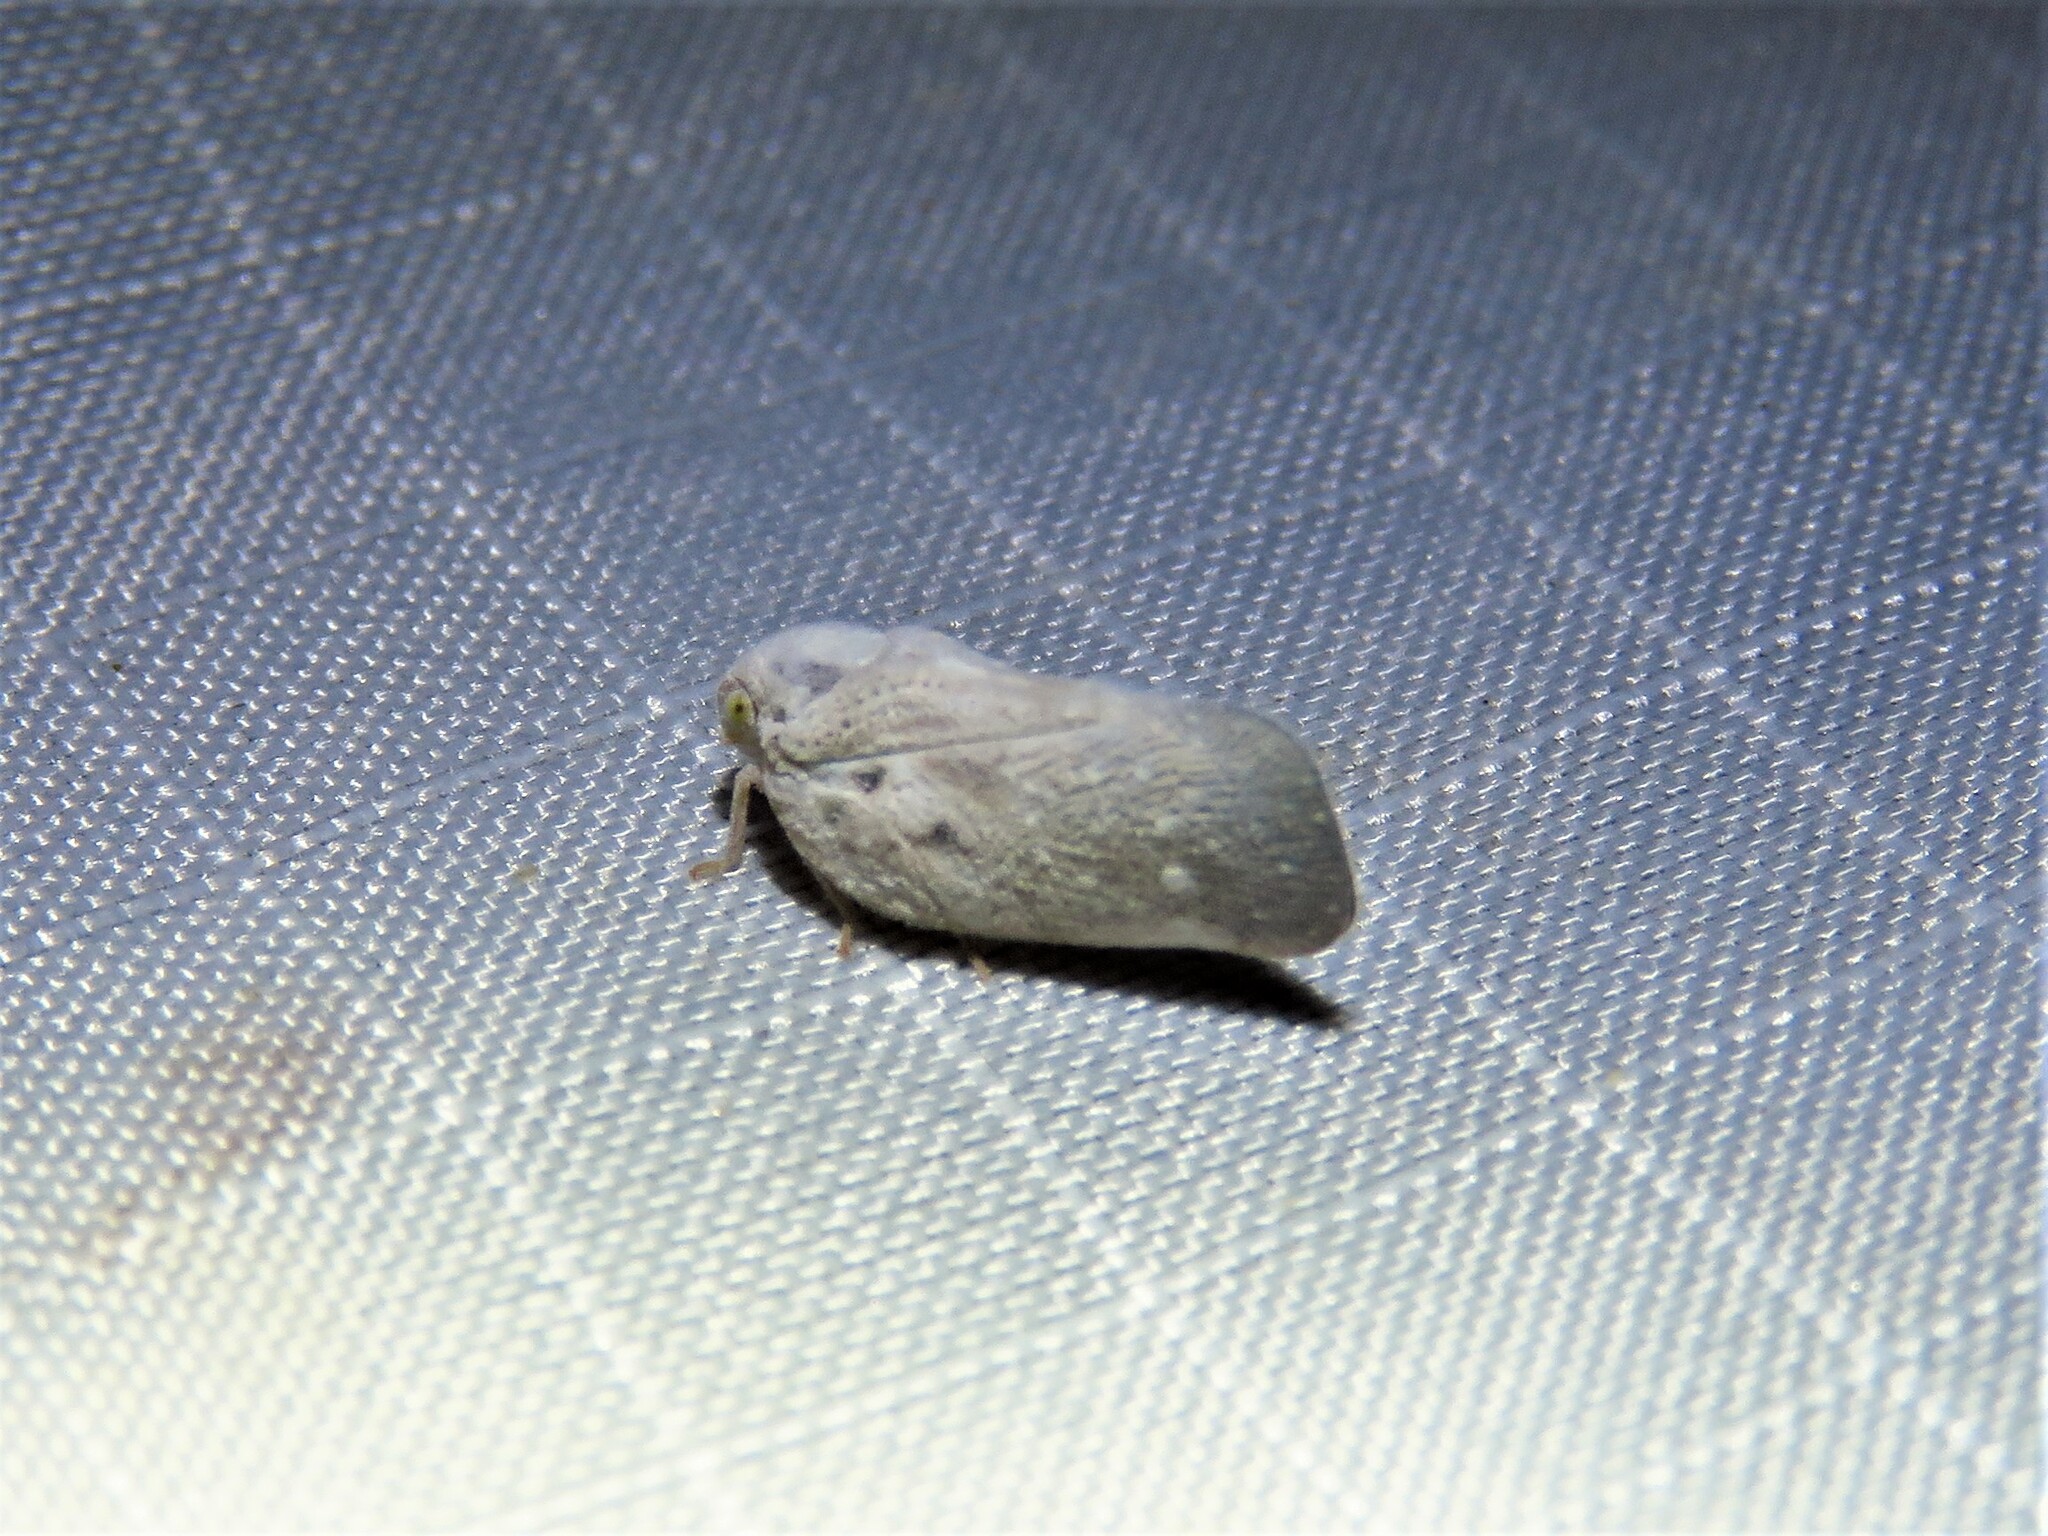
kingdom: Animalia
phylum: Arthropoda
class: Insecta
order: Hemiptera
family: Flatidae
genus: Metcalfa
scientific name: Metcalfa pruinosa
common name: Citrus flatid planthopper
